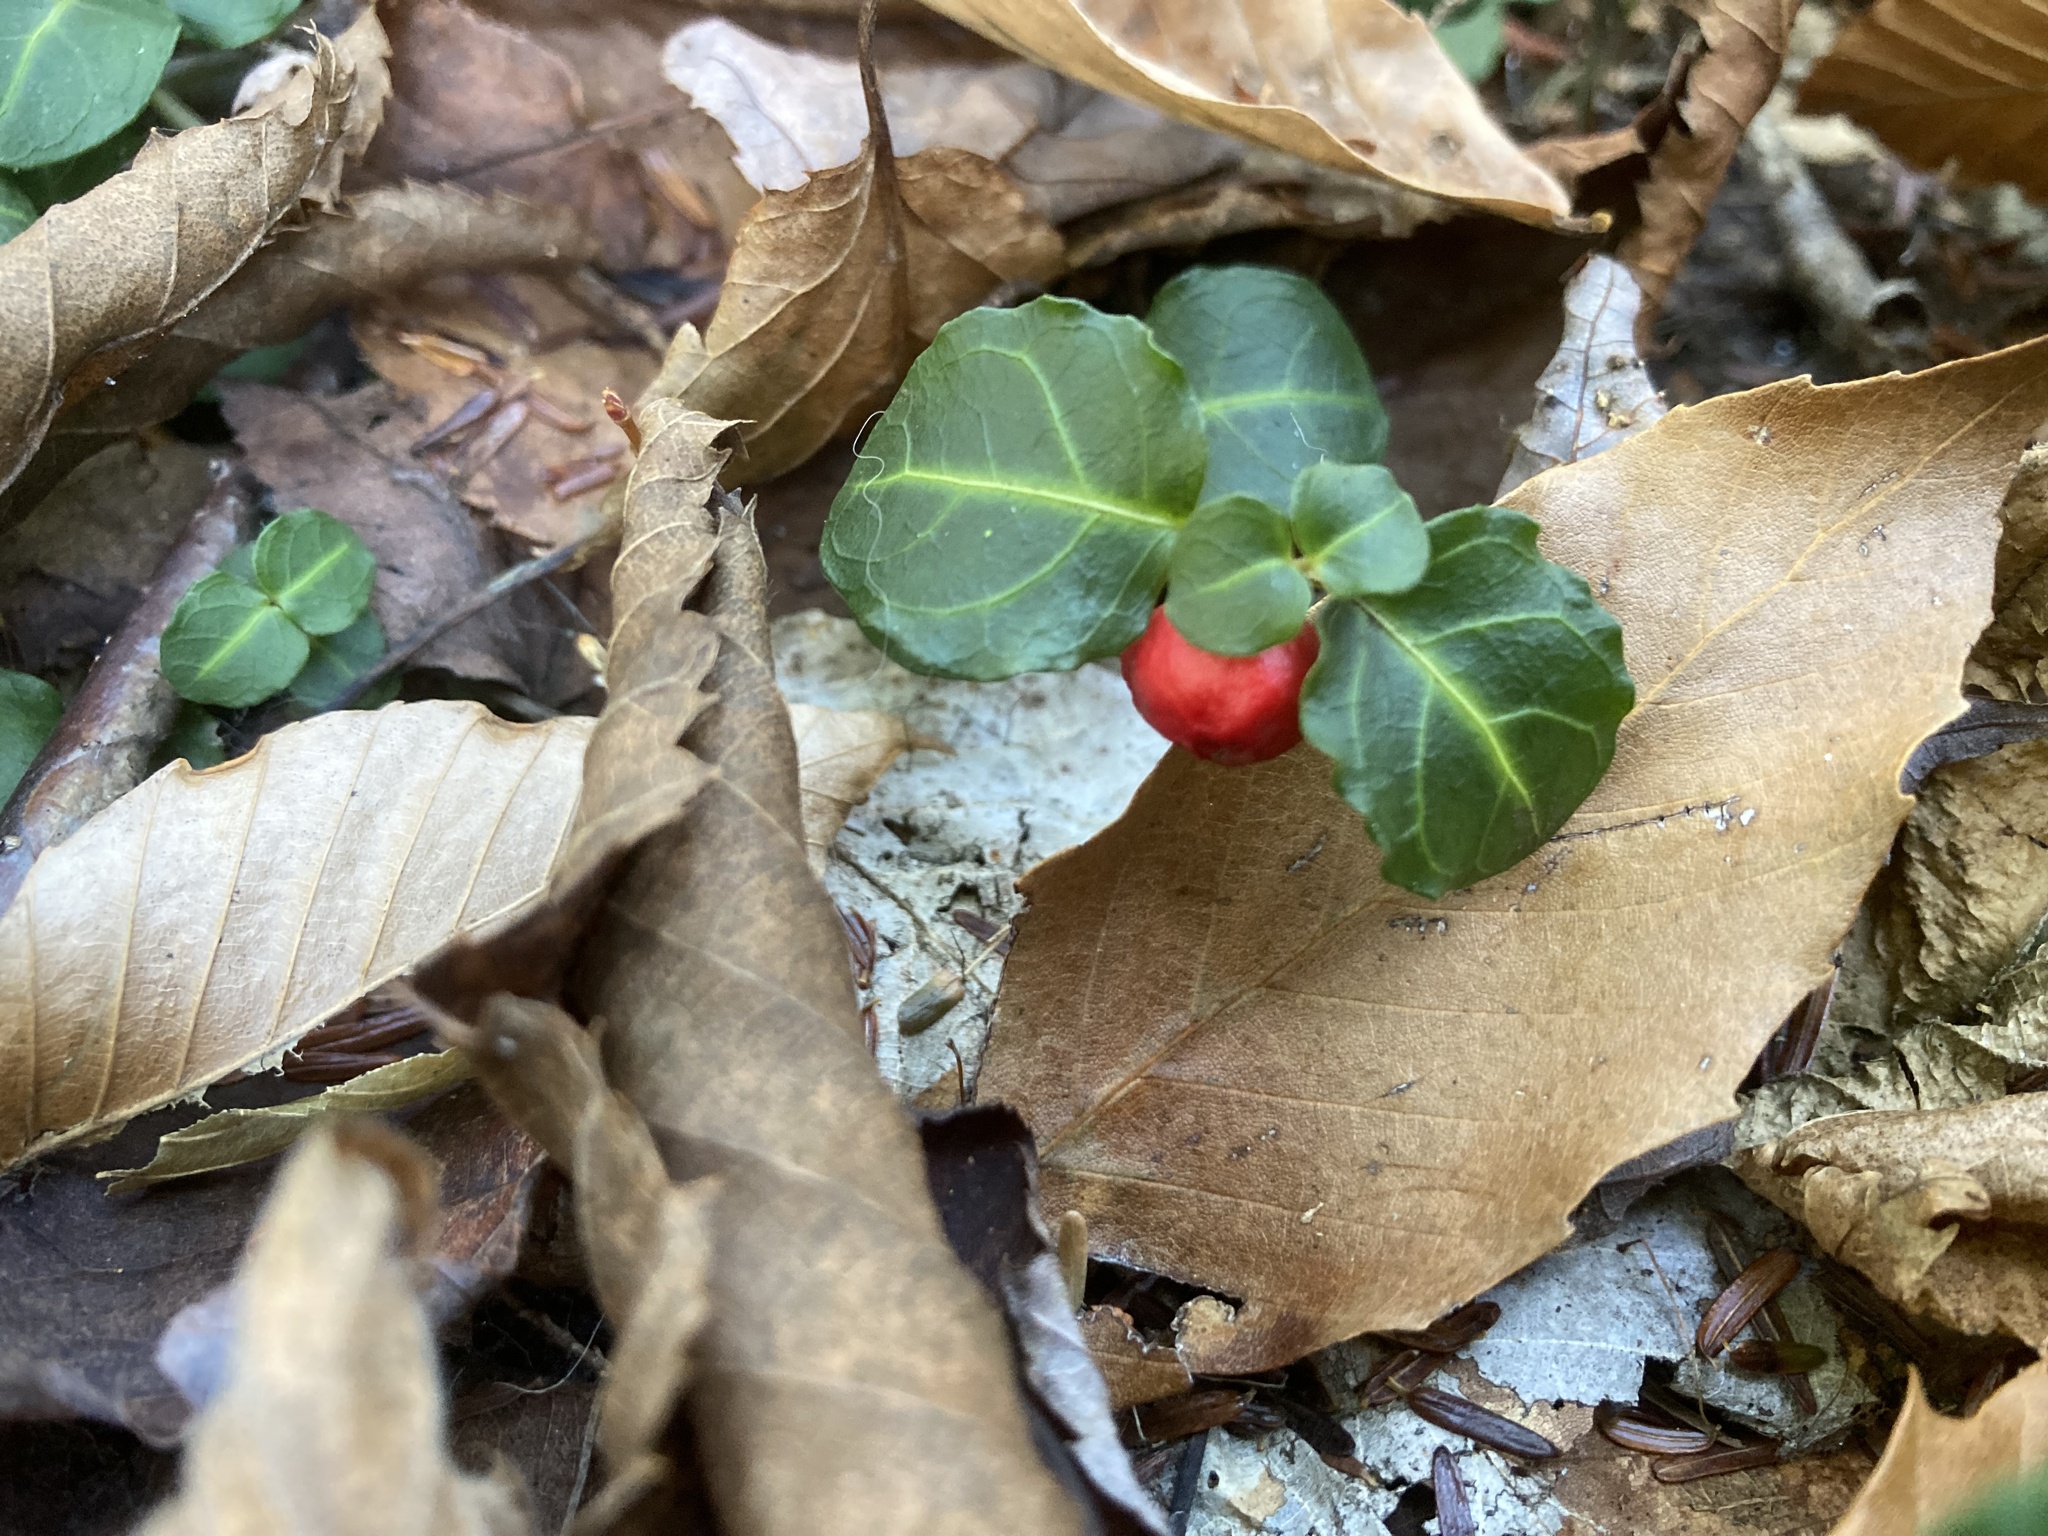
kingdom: Plantae
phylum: Tracheophyta
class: Magnoliopsida
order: Gentianales
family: Rubiaceae
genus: Mitchella
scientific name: Mitchella repens
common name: Partridge-berry
